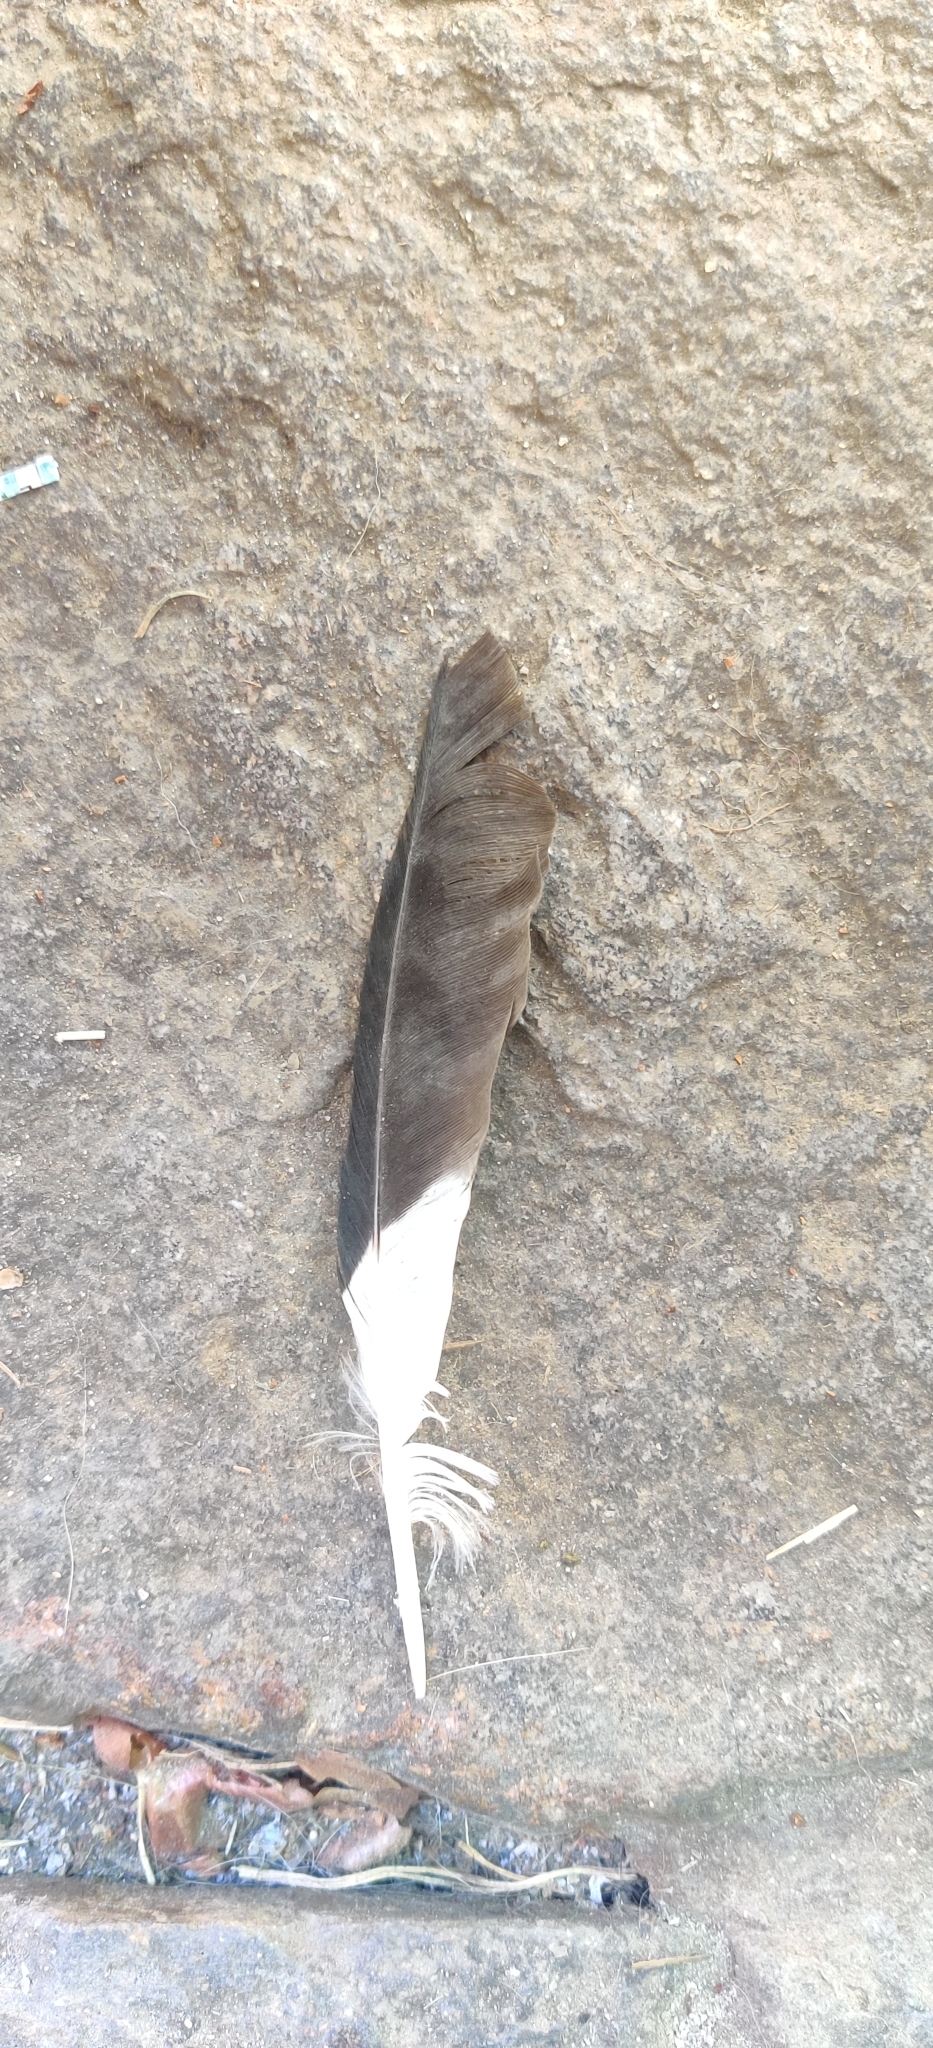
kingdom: Animalia
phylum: Chordata
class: Aves
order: Passeriformes
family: Sturnidae
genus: Acridotheres
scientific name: Acridotheres tristis
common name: Common myna
